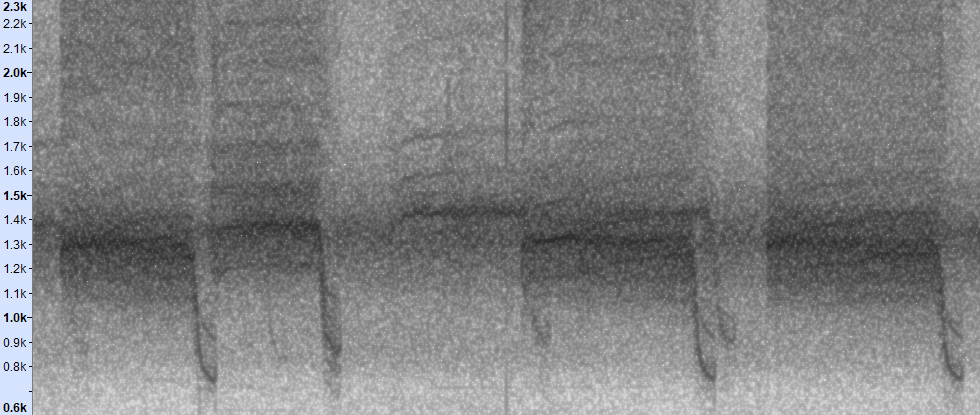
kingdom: Animalia
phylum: Arthropoda
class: Insecta
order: Hemiptera
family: Cicadidae
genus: Magicicada
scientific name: Magicicada septendecim
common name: Periodical cicada
